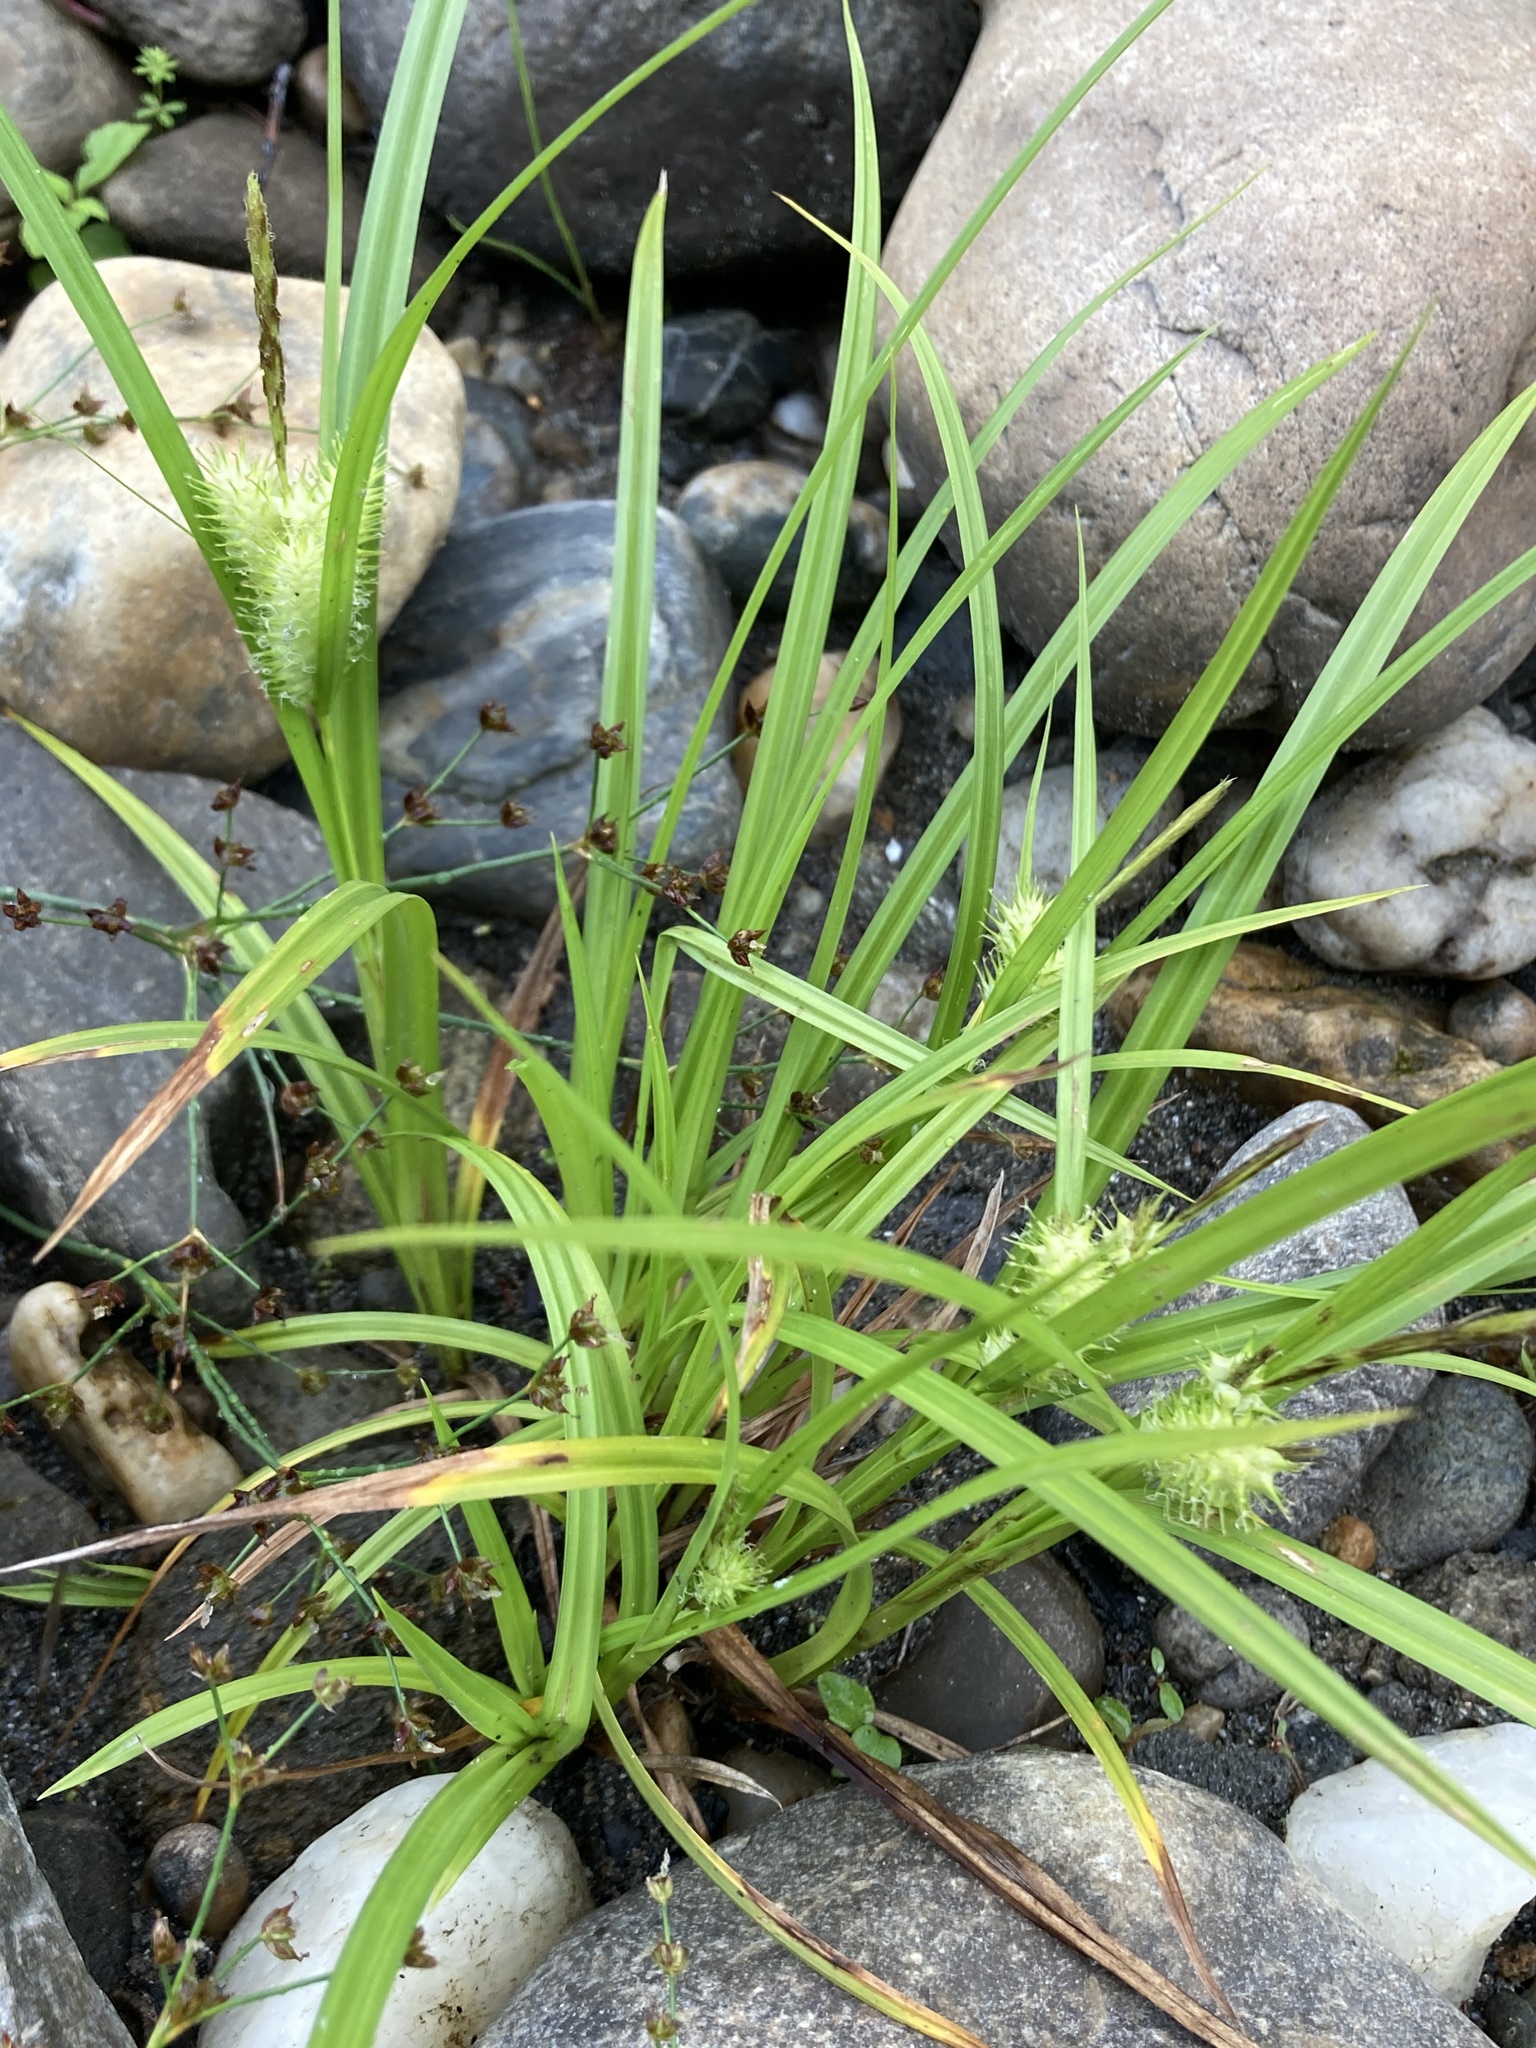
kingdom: Plantae
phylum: Tracheophyta
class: Liliopsida
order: Poales
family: Cyperaceae
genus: Carex
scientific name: Carex lurida
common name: Sallow sedge
